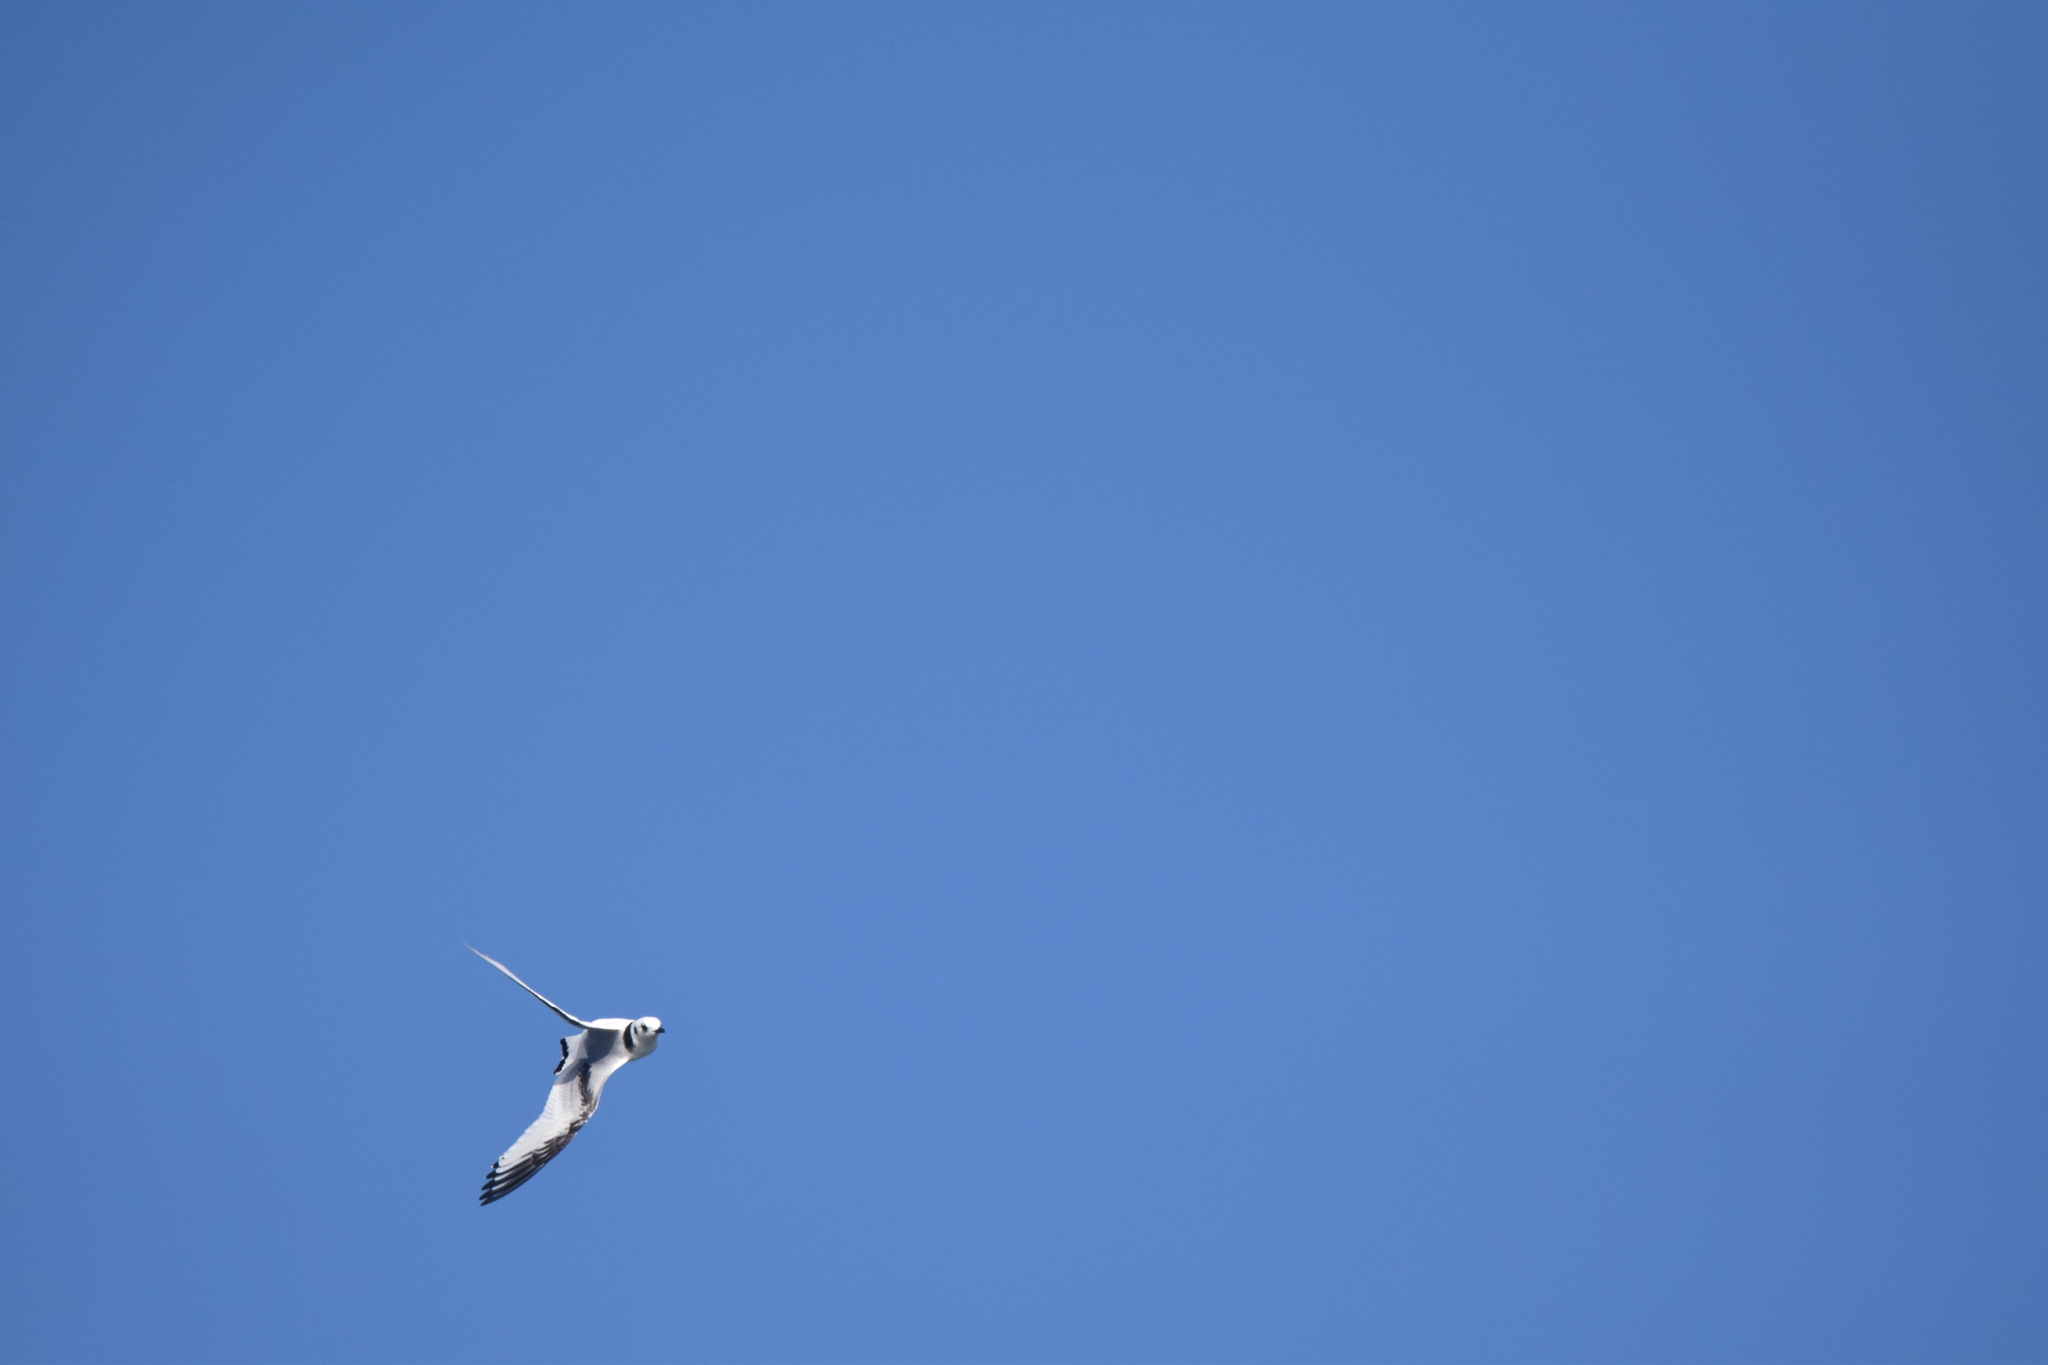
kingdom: Animalia
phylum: Chordata
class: Aves
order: Charadriiformes
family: Laridae
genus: Rissa
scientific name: Rissa tridactyla
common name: Black-legged kittiwake
